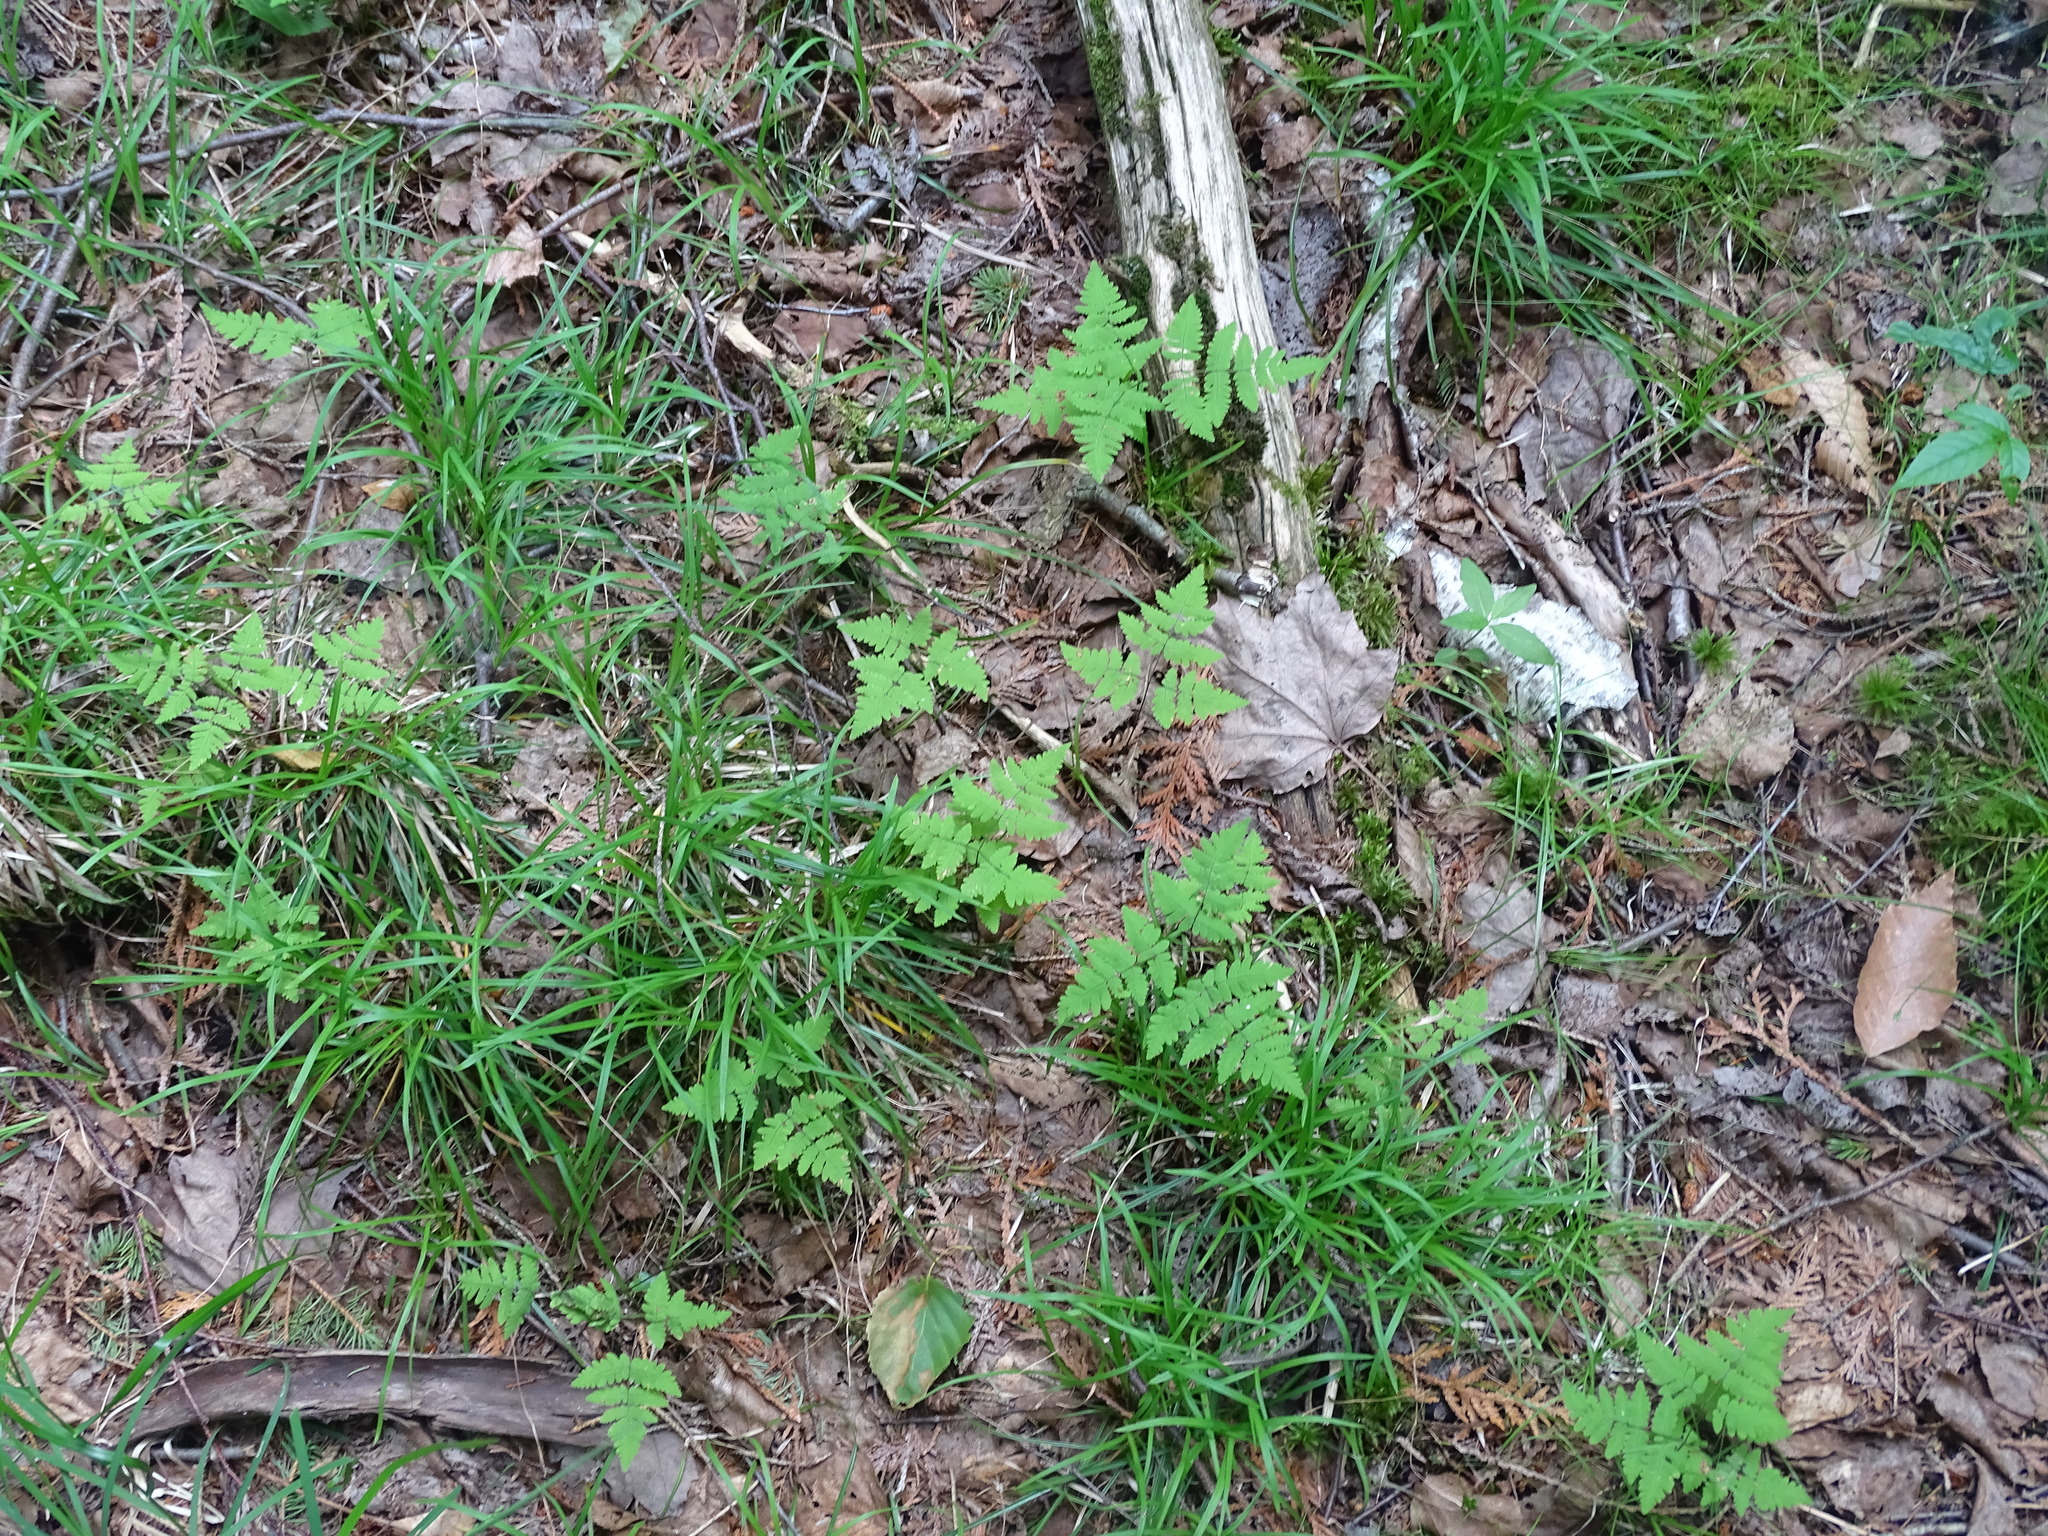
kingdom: Plantae
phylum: Tracheophyta
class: Polypodiopsida
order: Polypodiales
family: Cystopteridaceae
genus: Gymnocarpium
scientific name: Gymnocarpium dryopteris
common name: Oak fern
